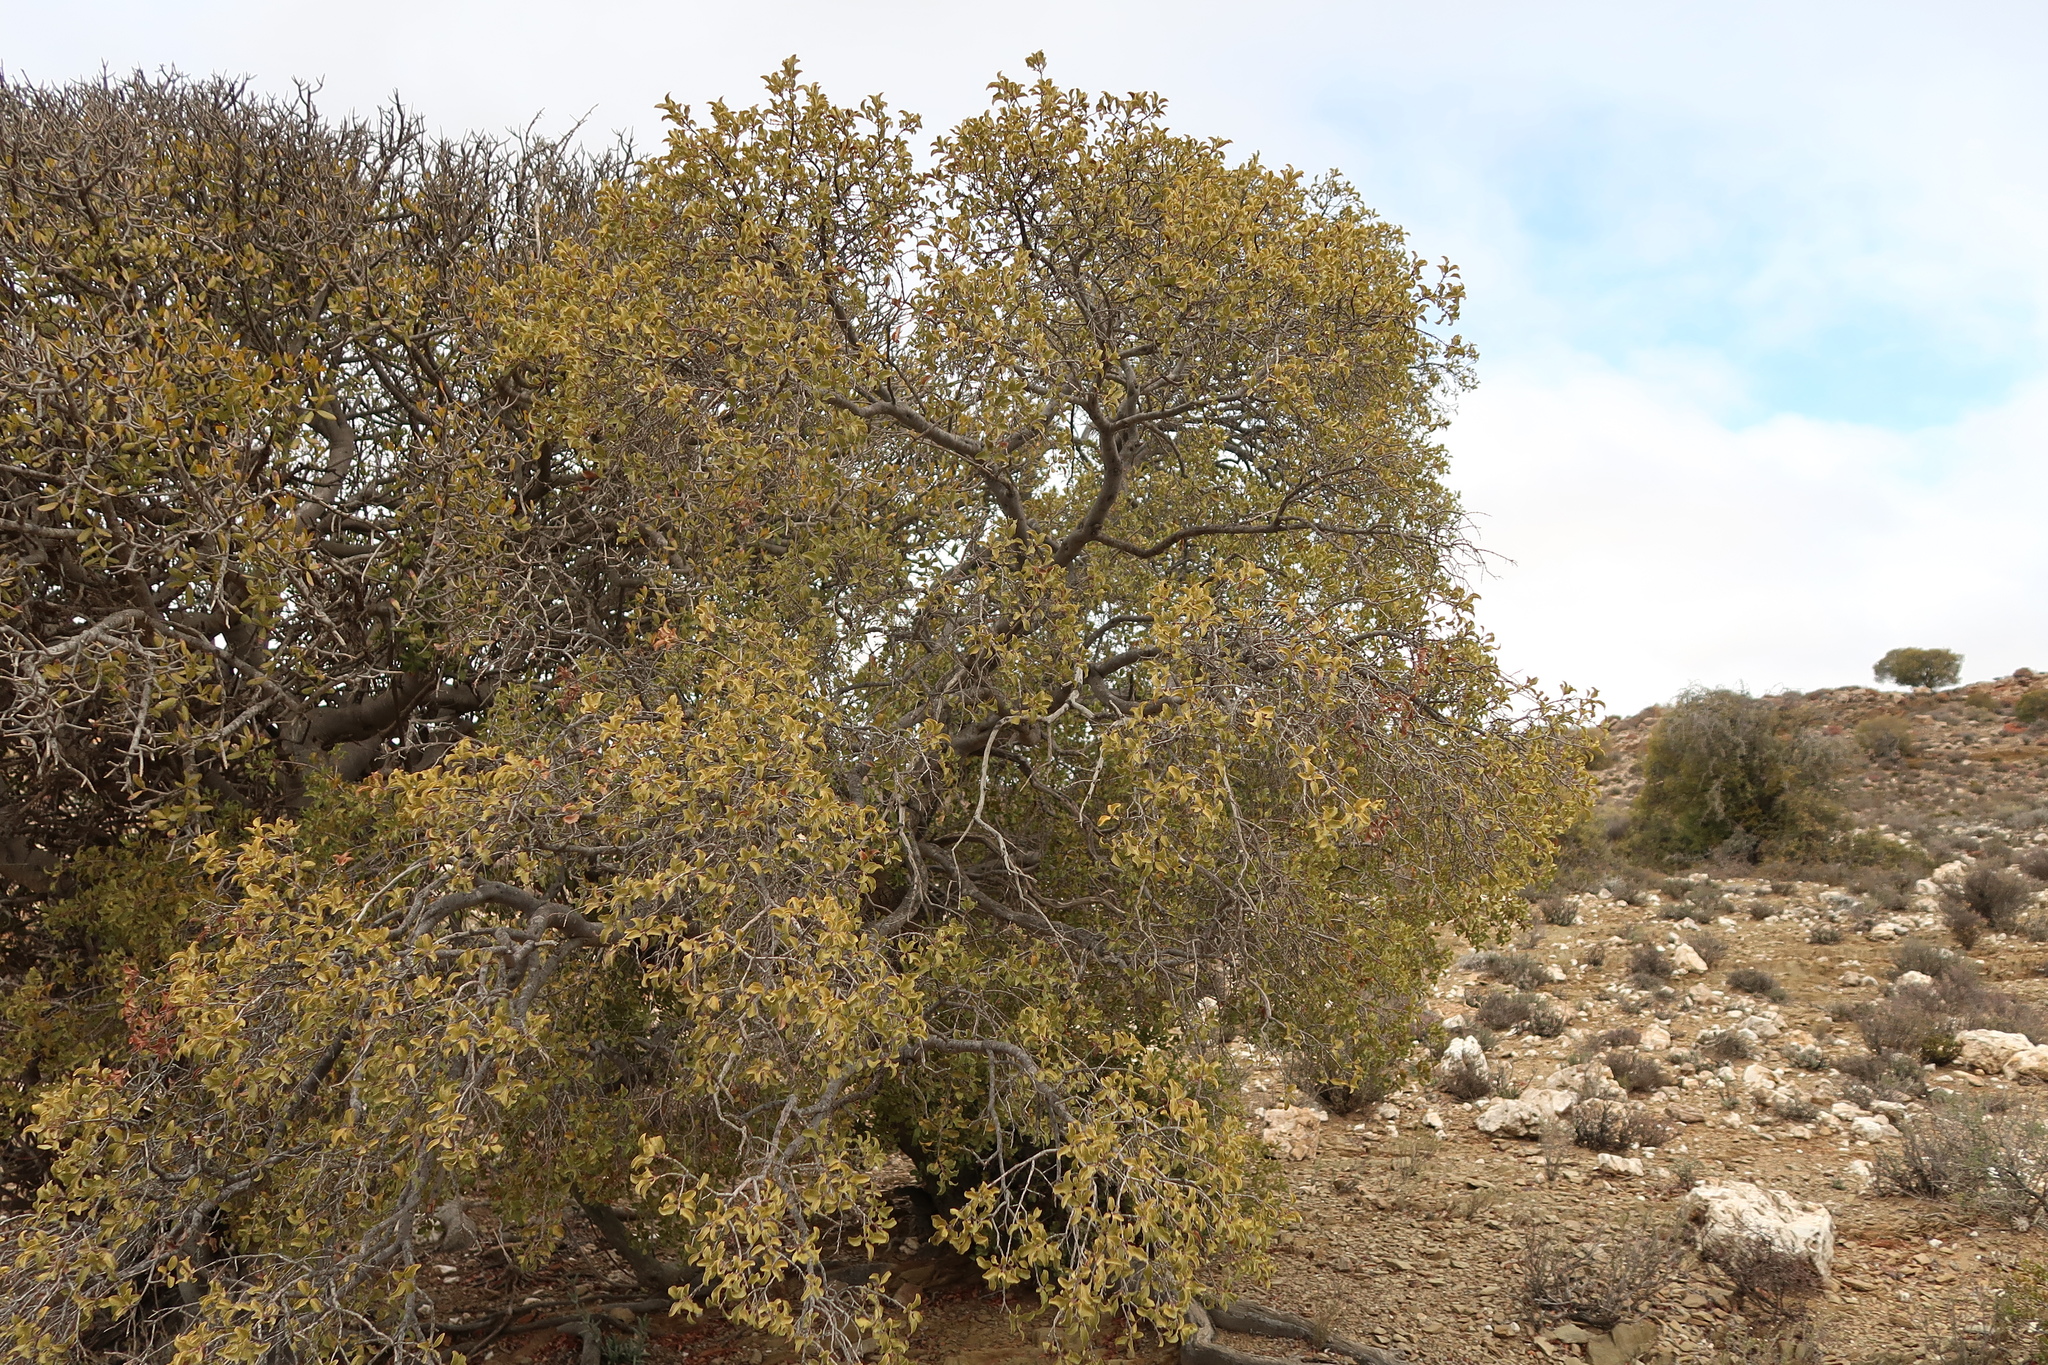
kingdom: Plantae
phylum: Tracheophyta
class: Magnoliopsida
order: Ericales
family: Ebenaceae
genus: Euclea
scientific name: Euclea undulata
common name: Small-leaved guarri
